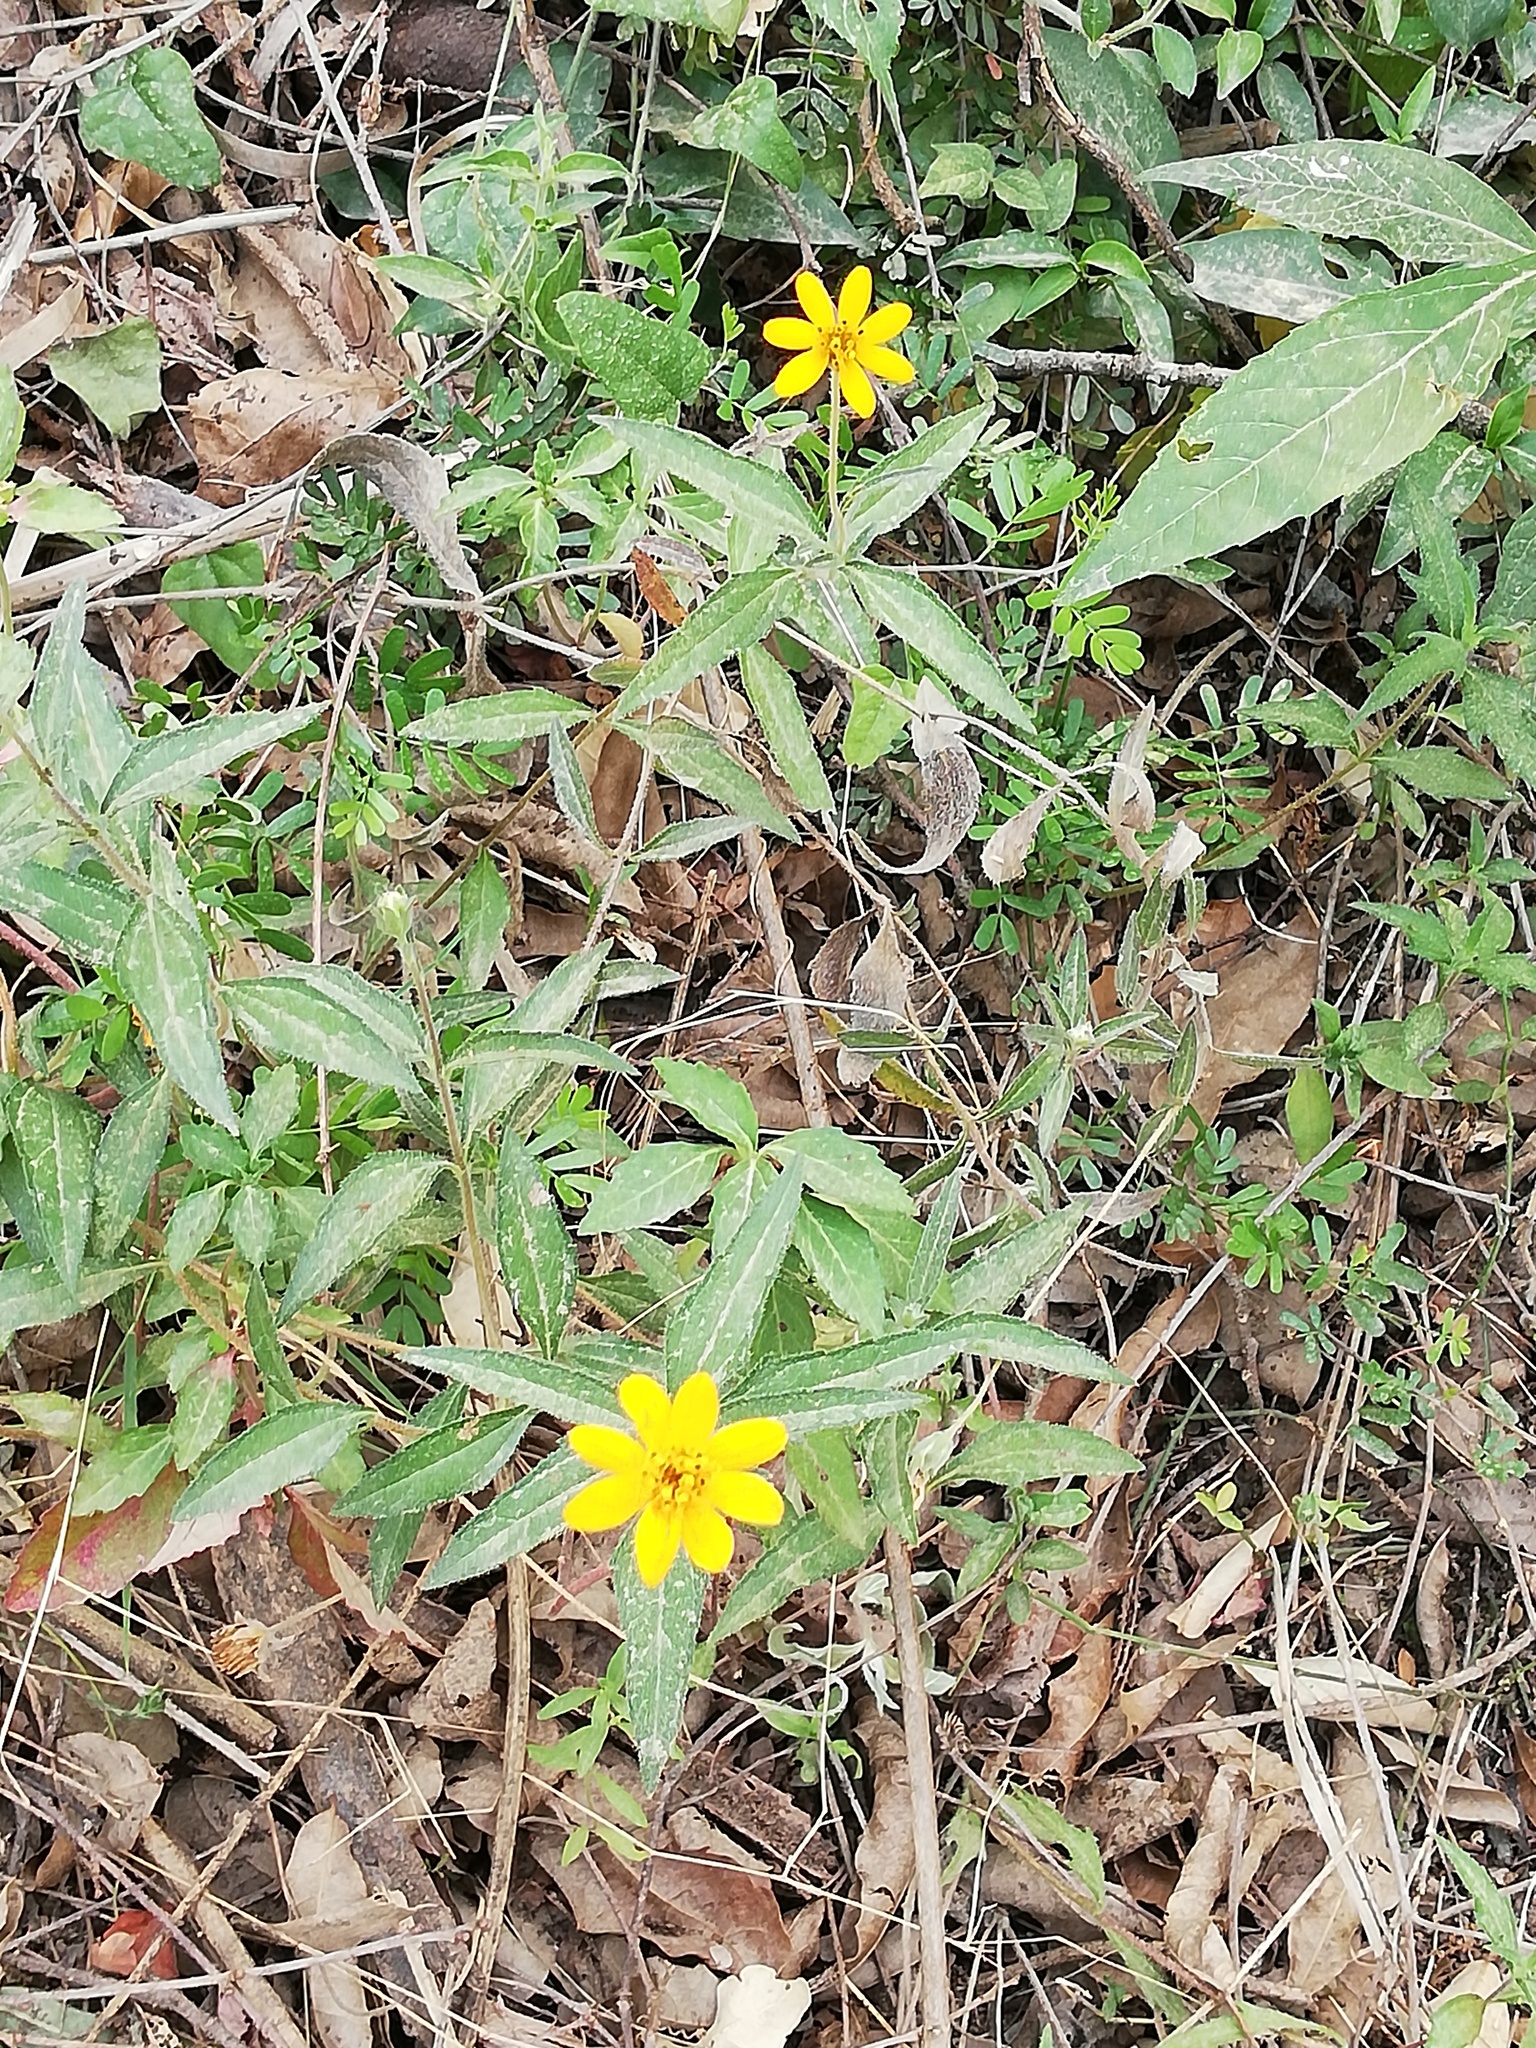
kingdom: Plantae
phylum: Tracheophyta
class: Magnoliopsida
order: Asterales
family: Asteraceae
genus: Wedelia
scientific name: Wedelia acapulcensis
